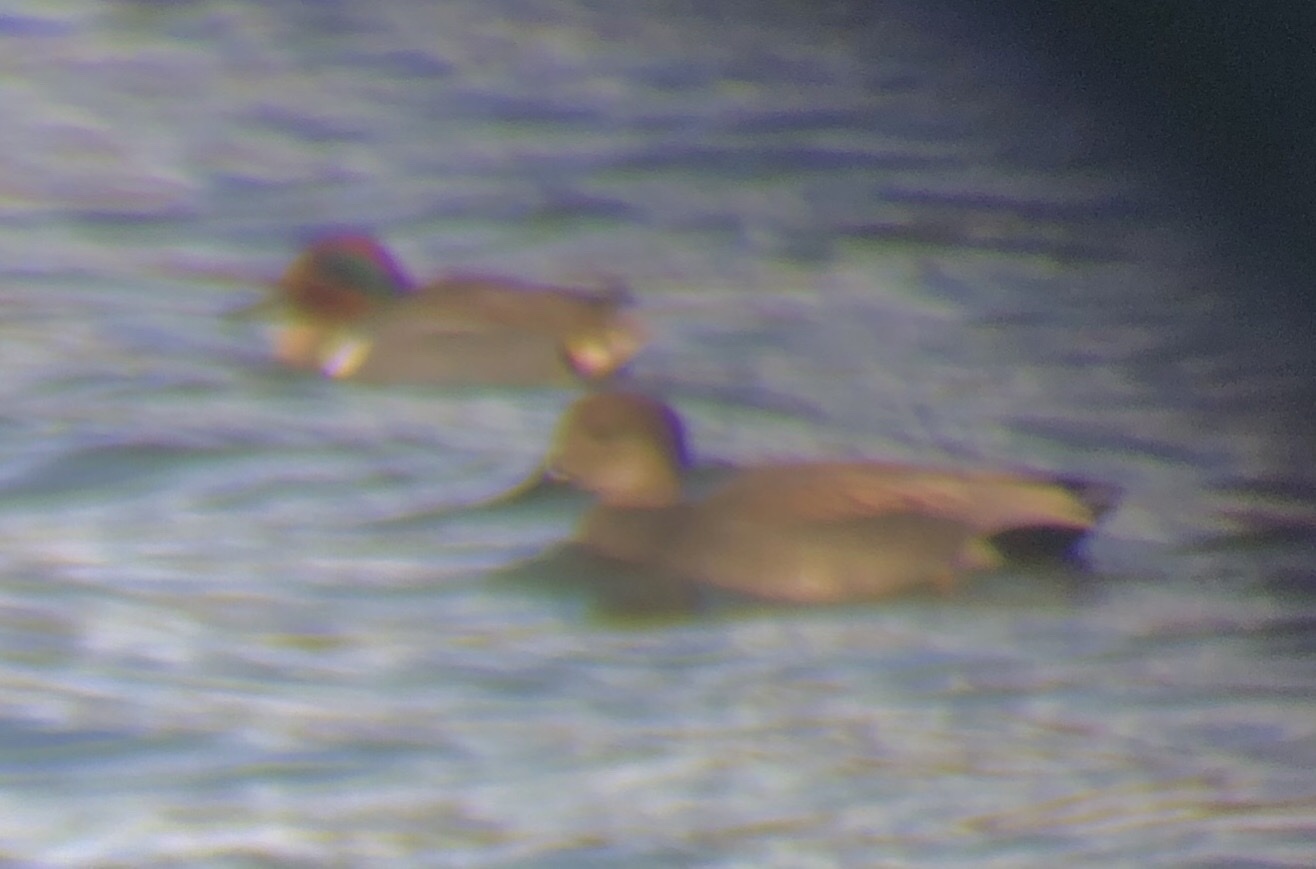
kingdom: Animalia
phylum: Chordata
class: Aves
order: Anseriformes
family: Anatidae
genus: Anas
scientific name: Anas crecca
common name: Eurasian teal
